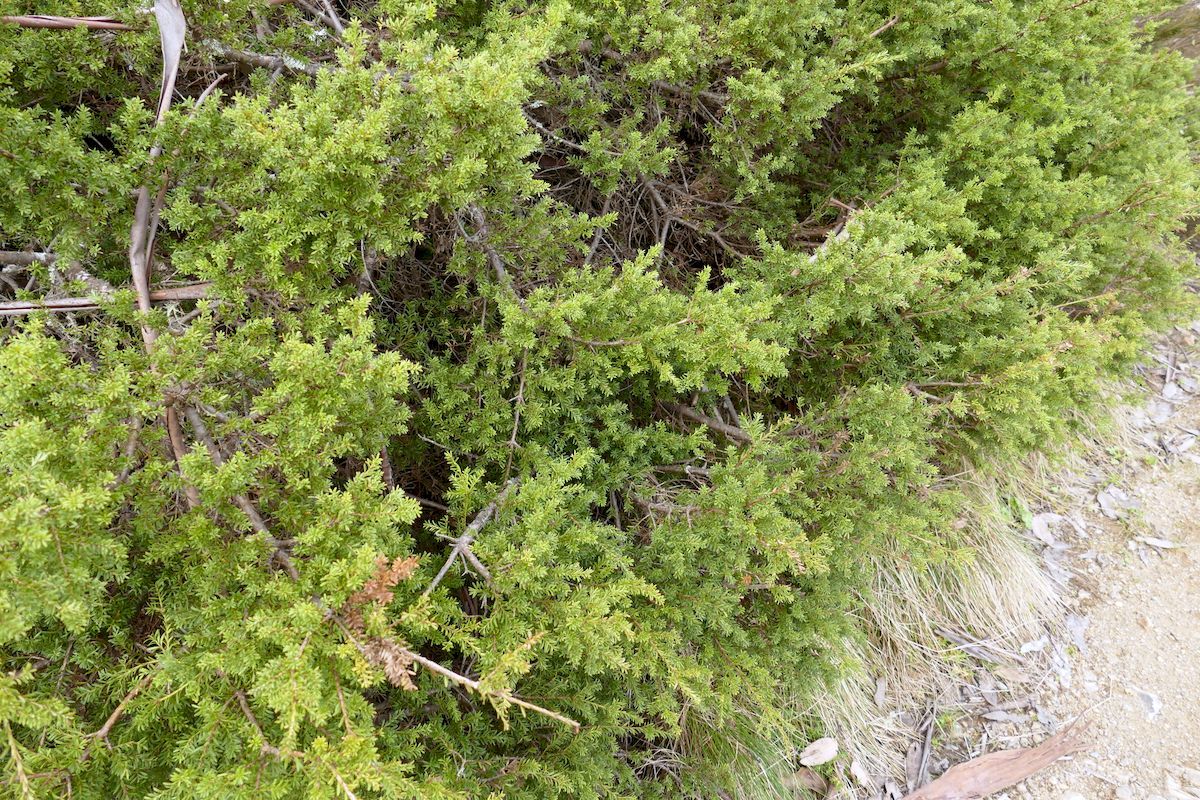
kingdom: Plantae
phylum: Tracheophyta
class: Pinopsida
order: Pinales
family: Podocarpaceae
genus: Podocarpus
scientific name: Podocarpus lawrencei
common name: Mountain plum pine
